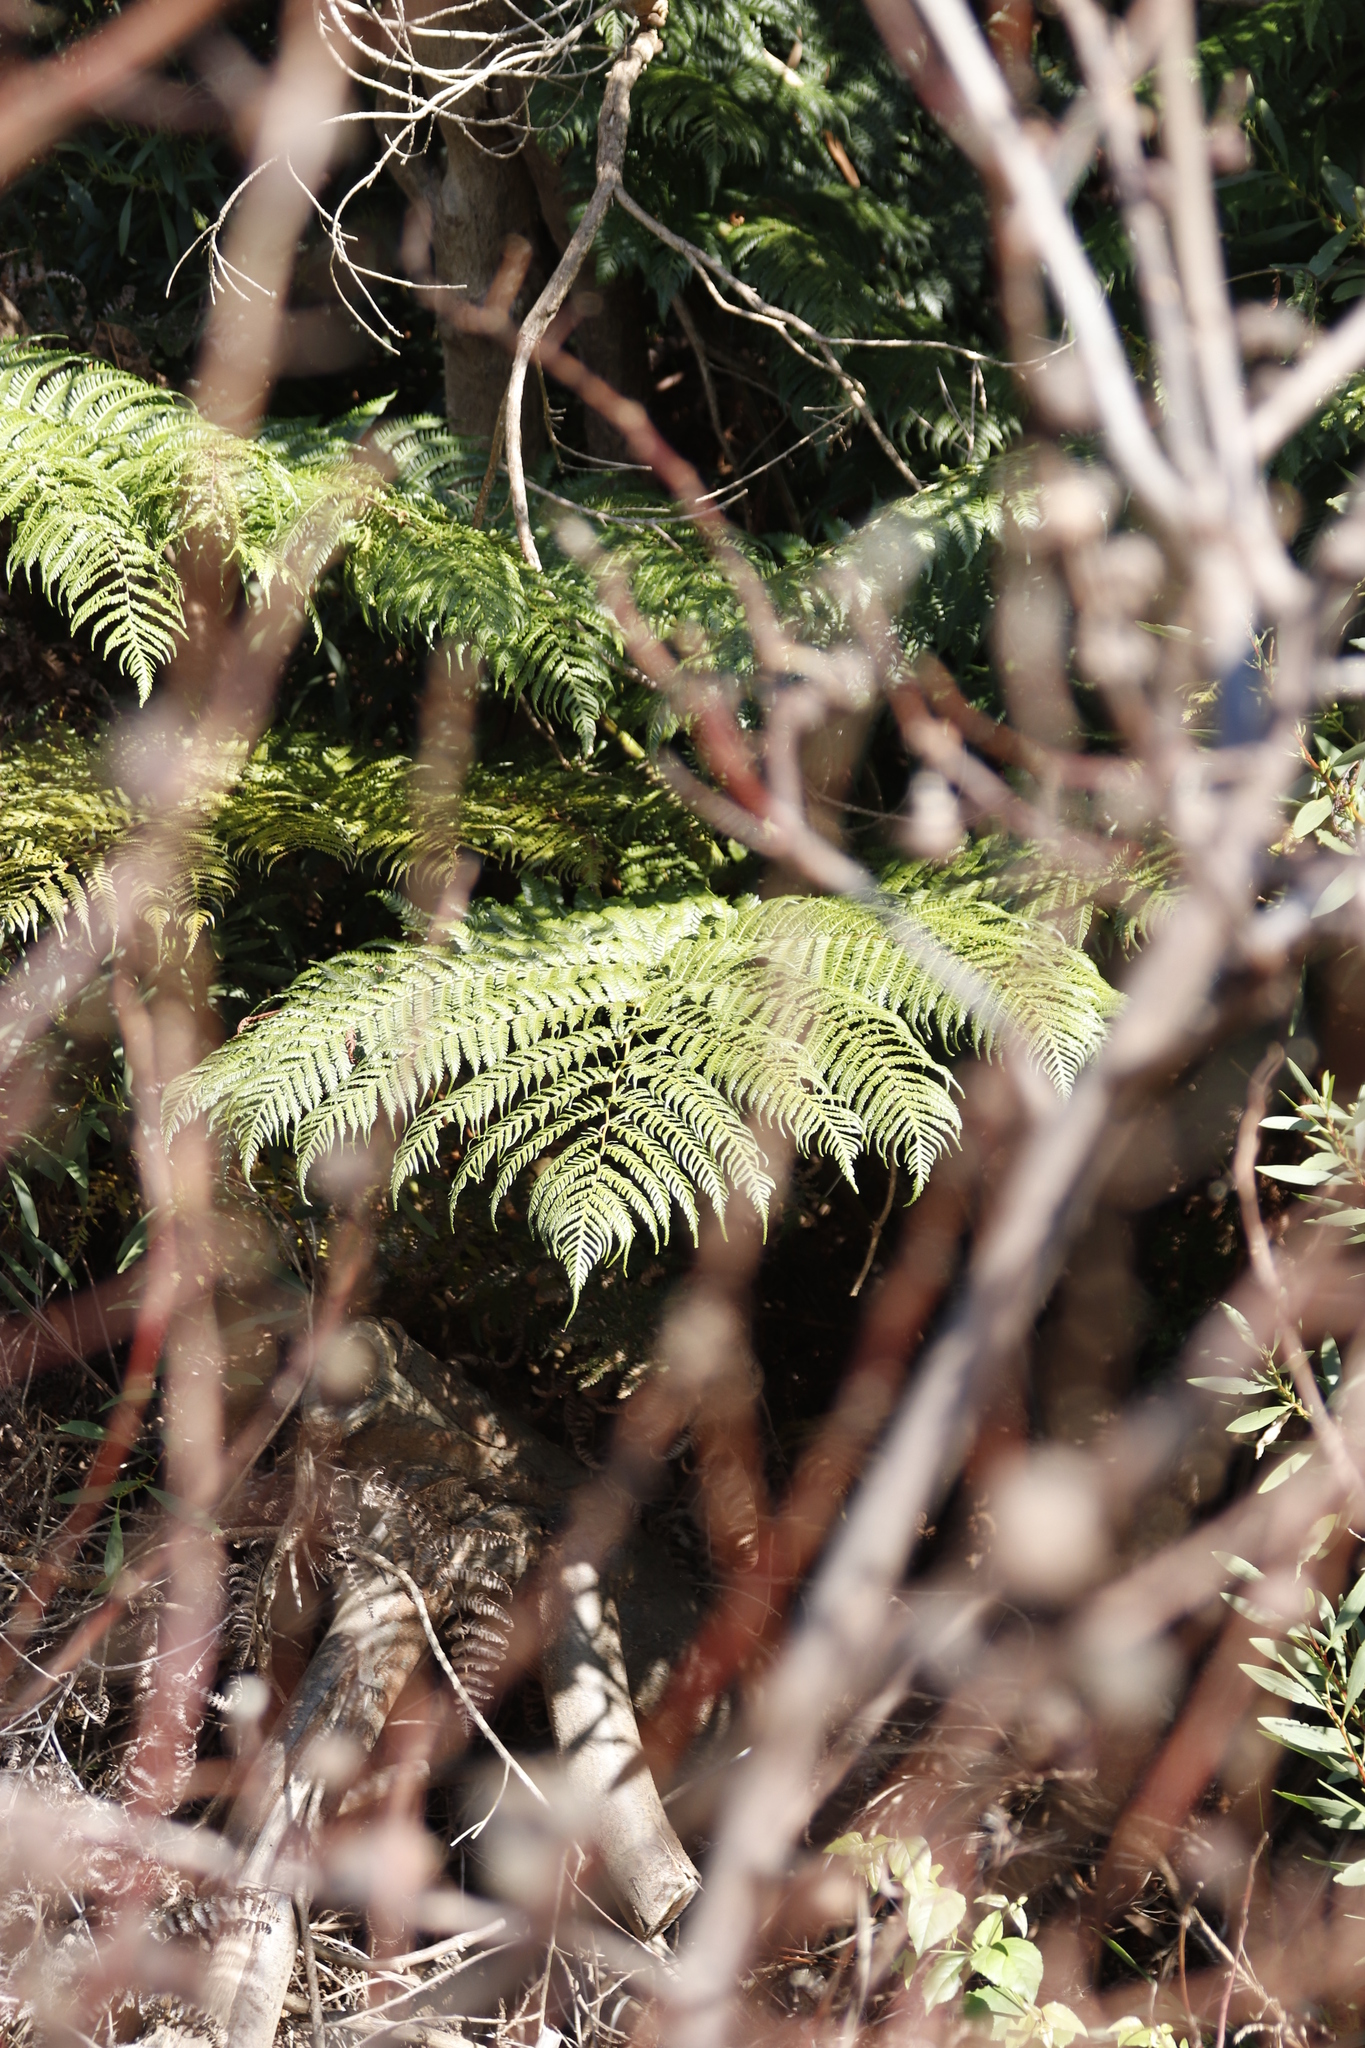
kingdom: Plantae
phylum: Tracheophyta
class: Polypodiopsida
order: Cyatheales
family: Cyatheaceae
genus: Sphaeropteris
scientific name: Sphaeropteris cooperi
